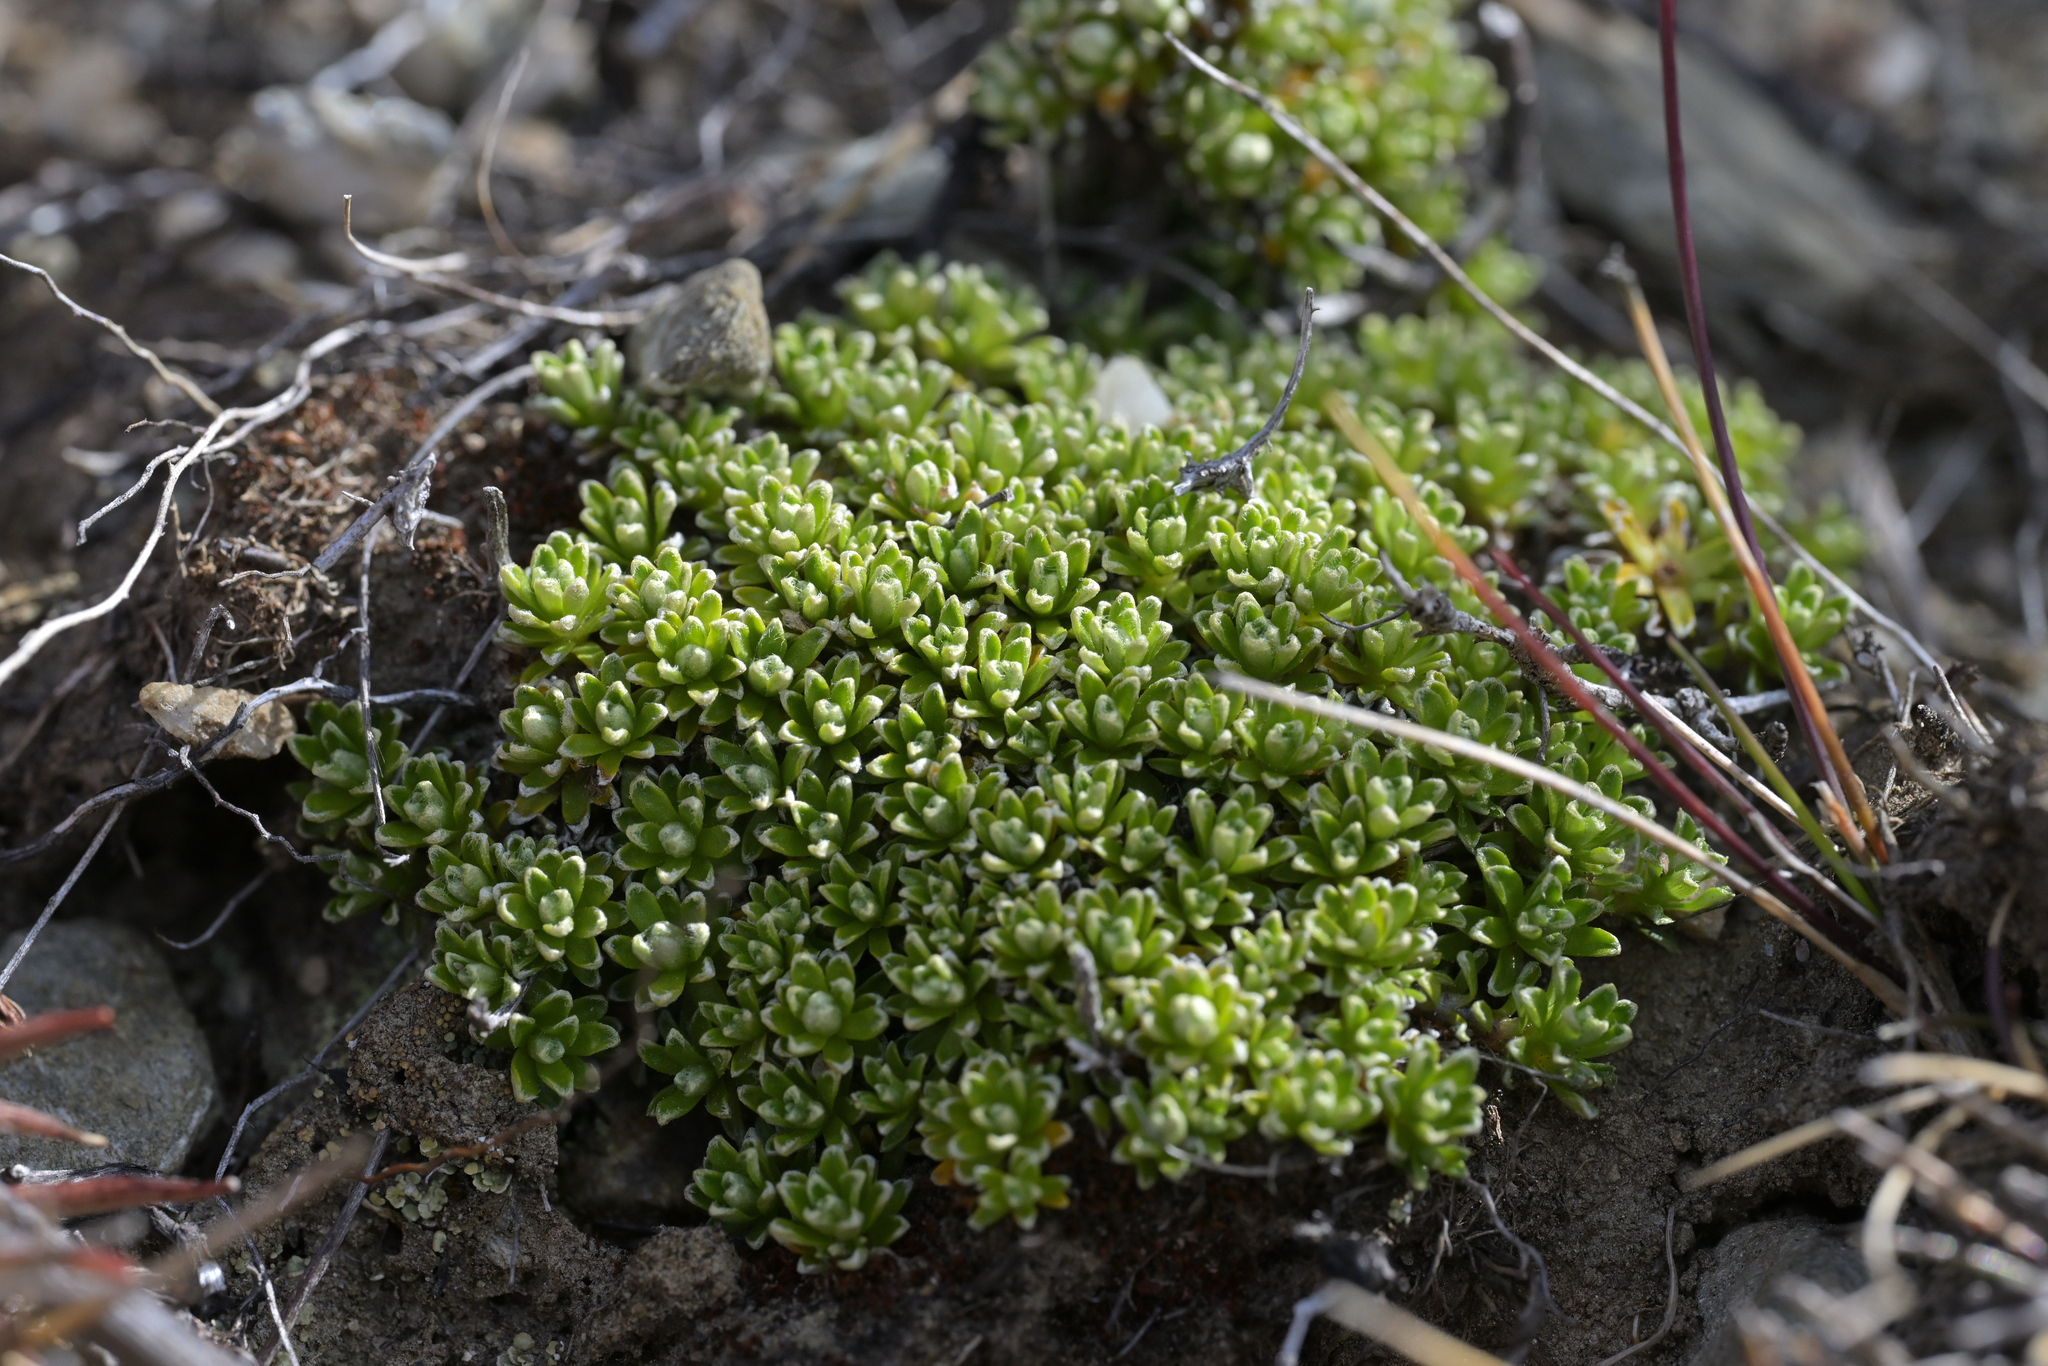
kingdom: Plantae
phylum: Tracheophyta
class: Magnoliopsida
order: Asterales
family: Asteraceae
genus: Raoulia
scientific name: Raoulia subsericea
